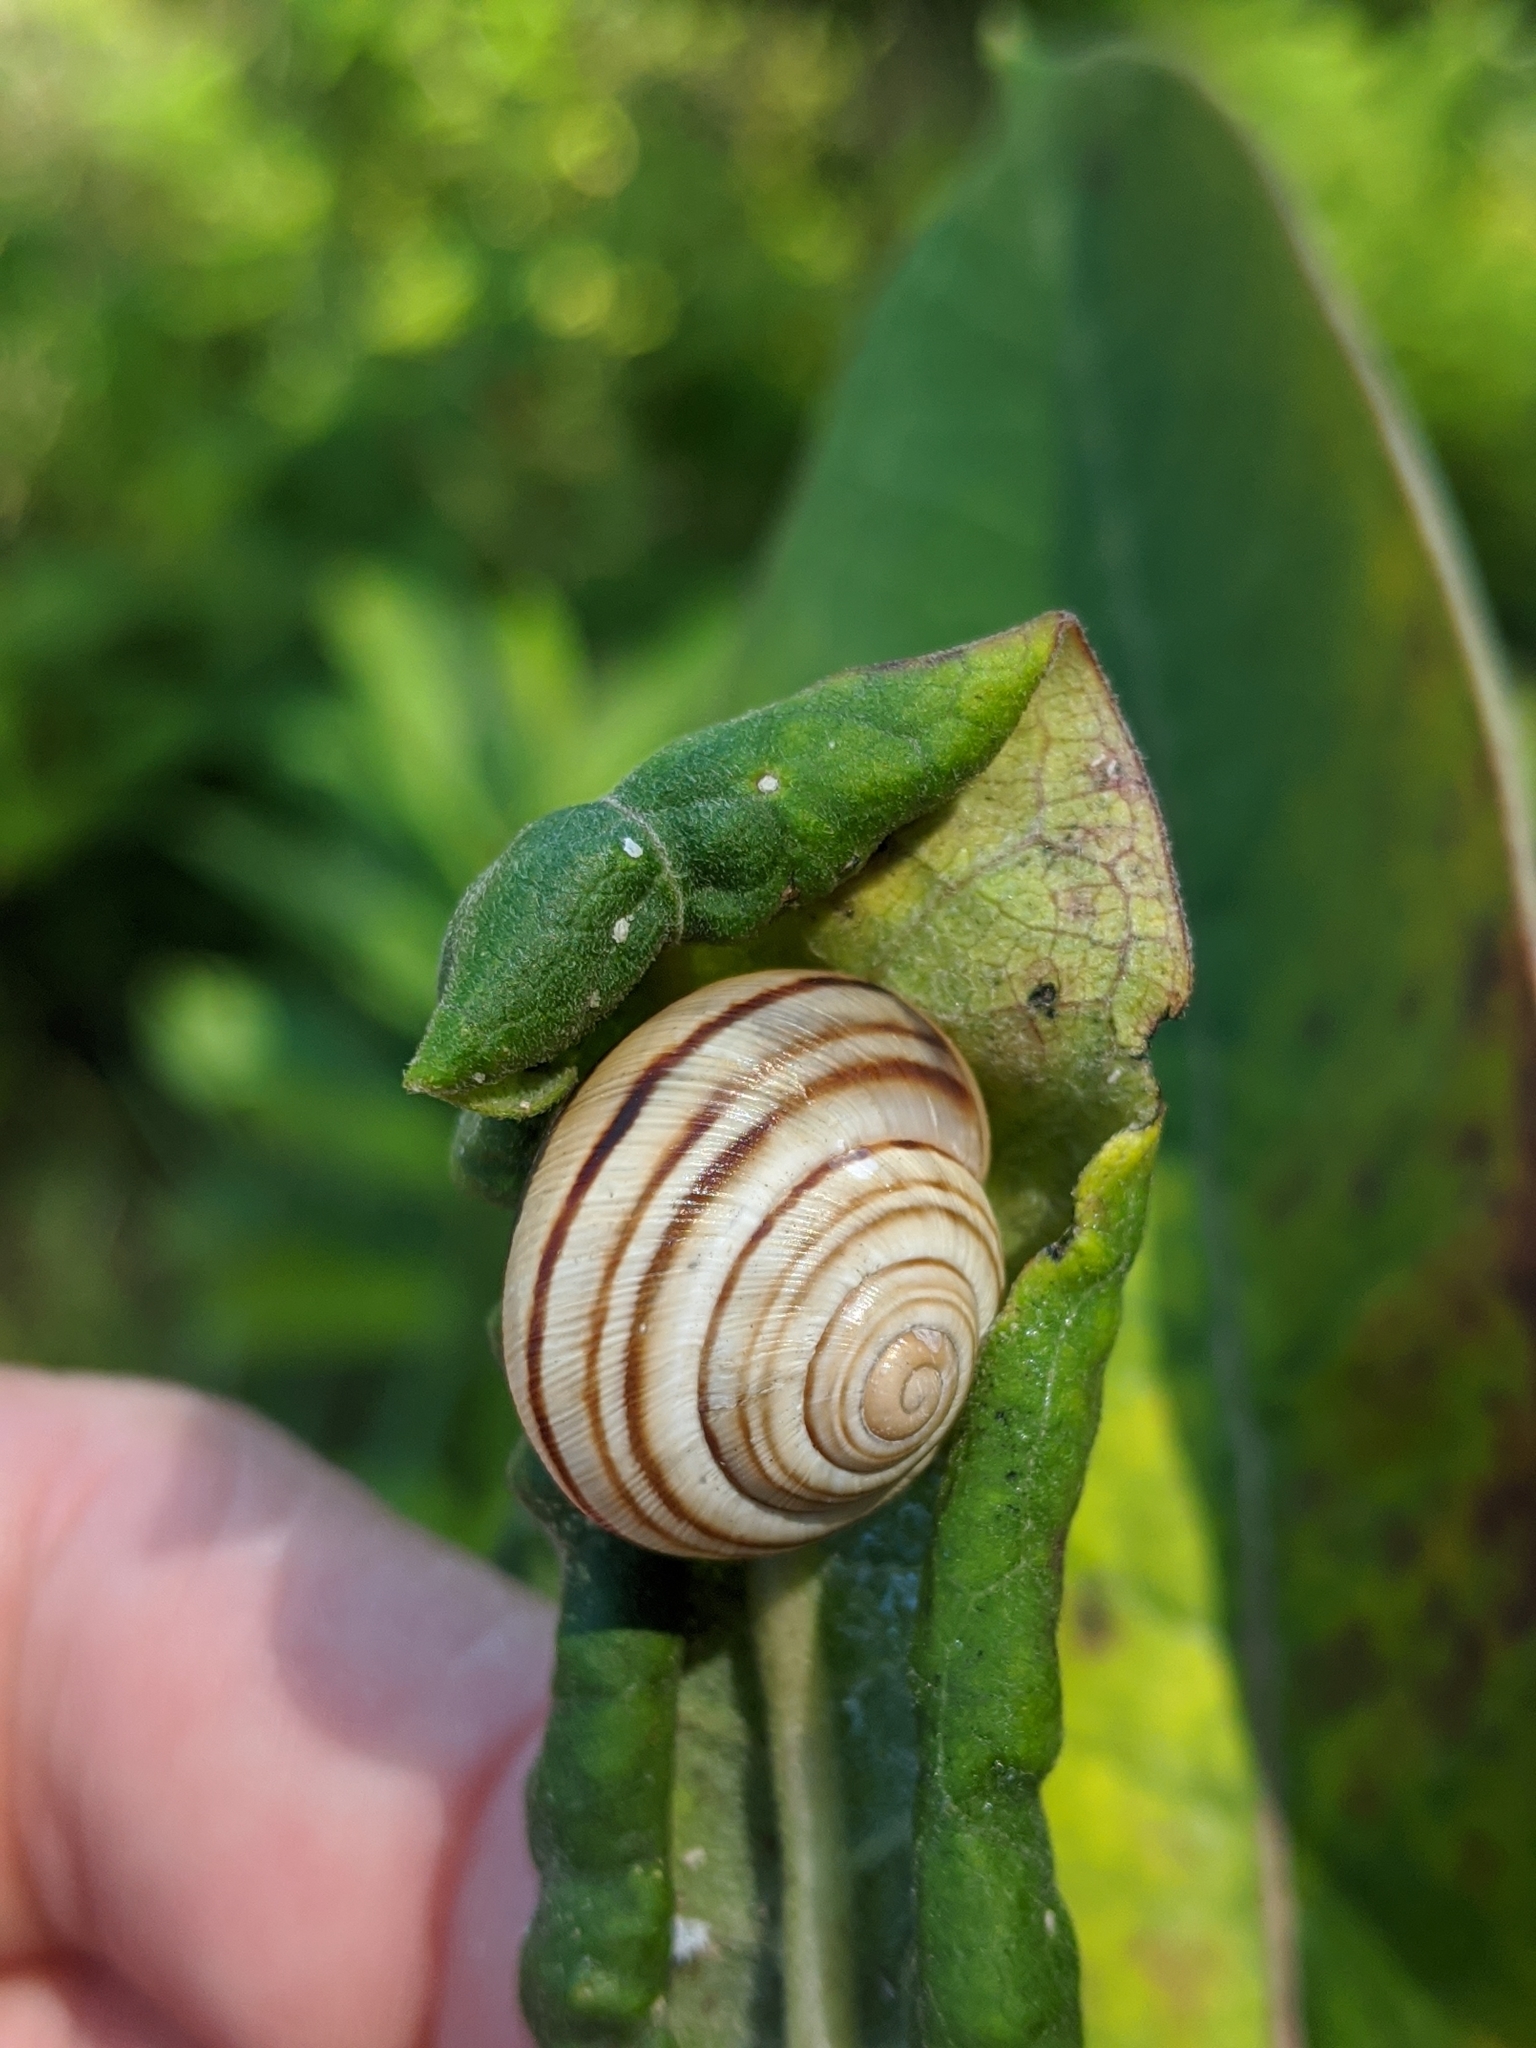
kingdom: Animalia
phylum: Mollusca
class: Gastropoda
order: Stylommatophora
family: Helicidae
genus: Caucasotachea
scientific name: Caucasotachea vindobonensis
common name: European helicid land snail
